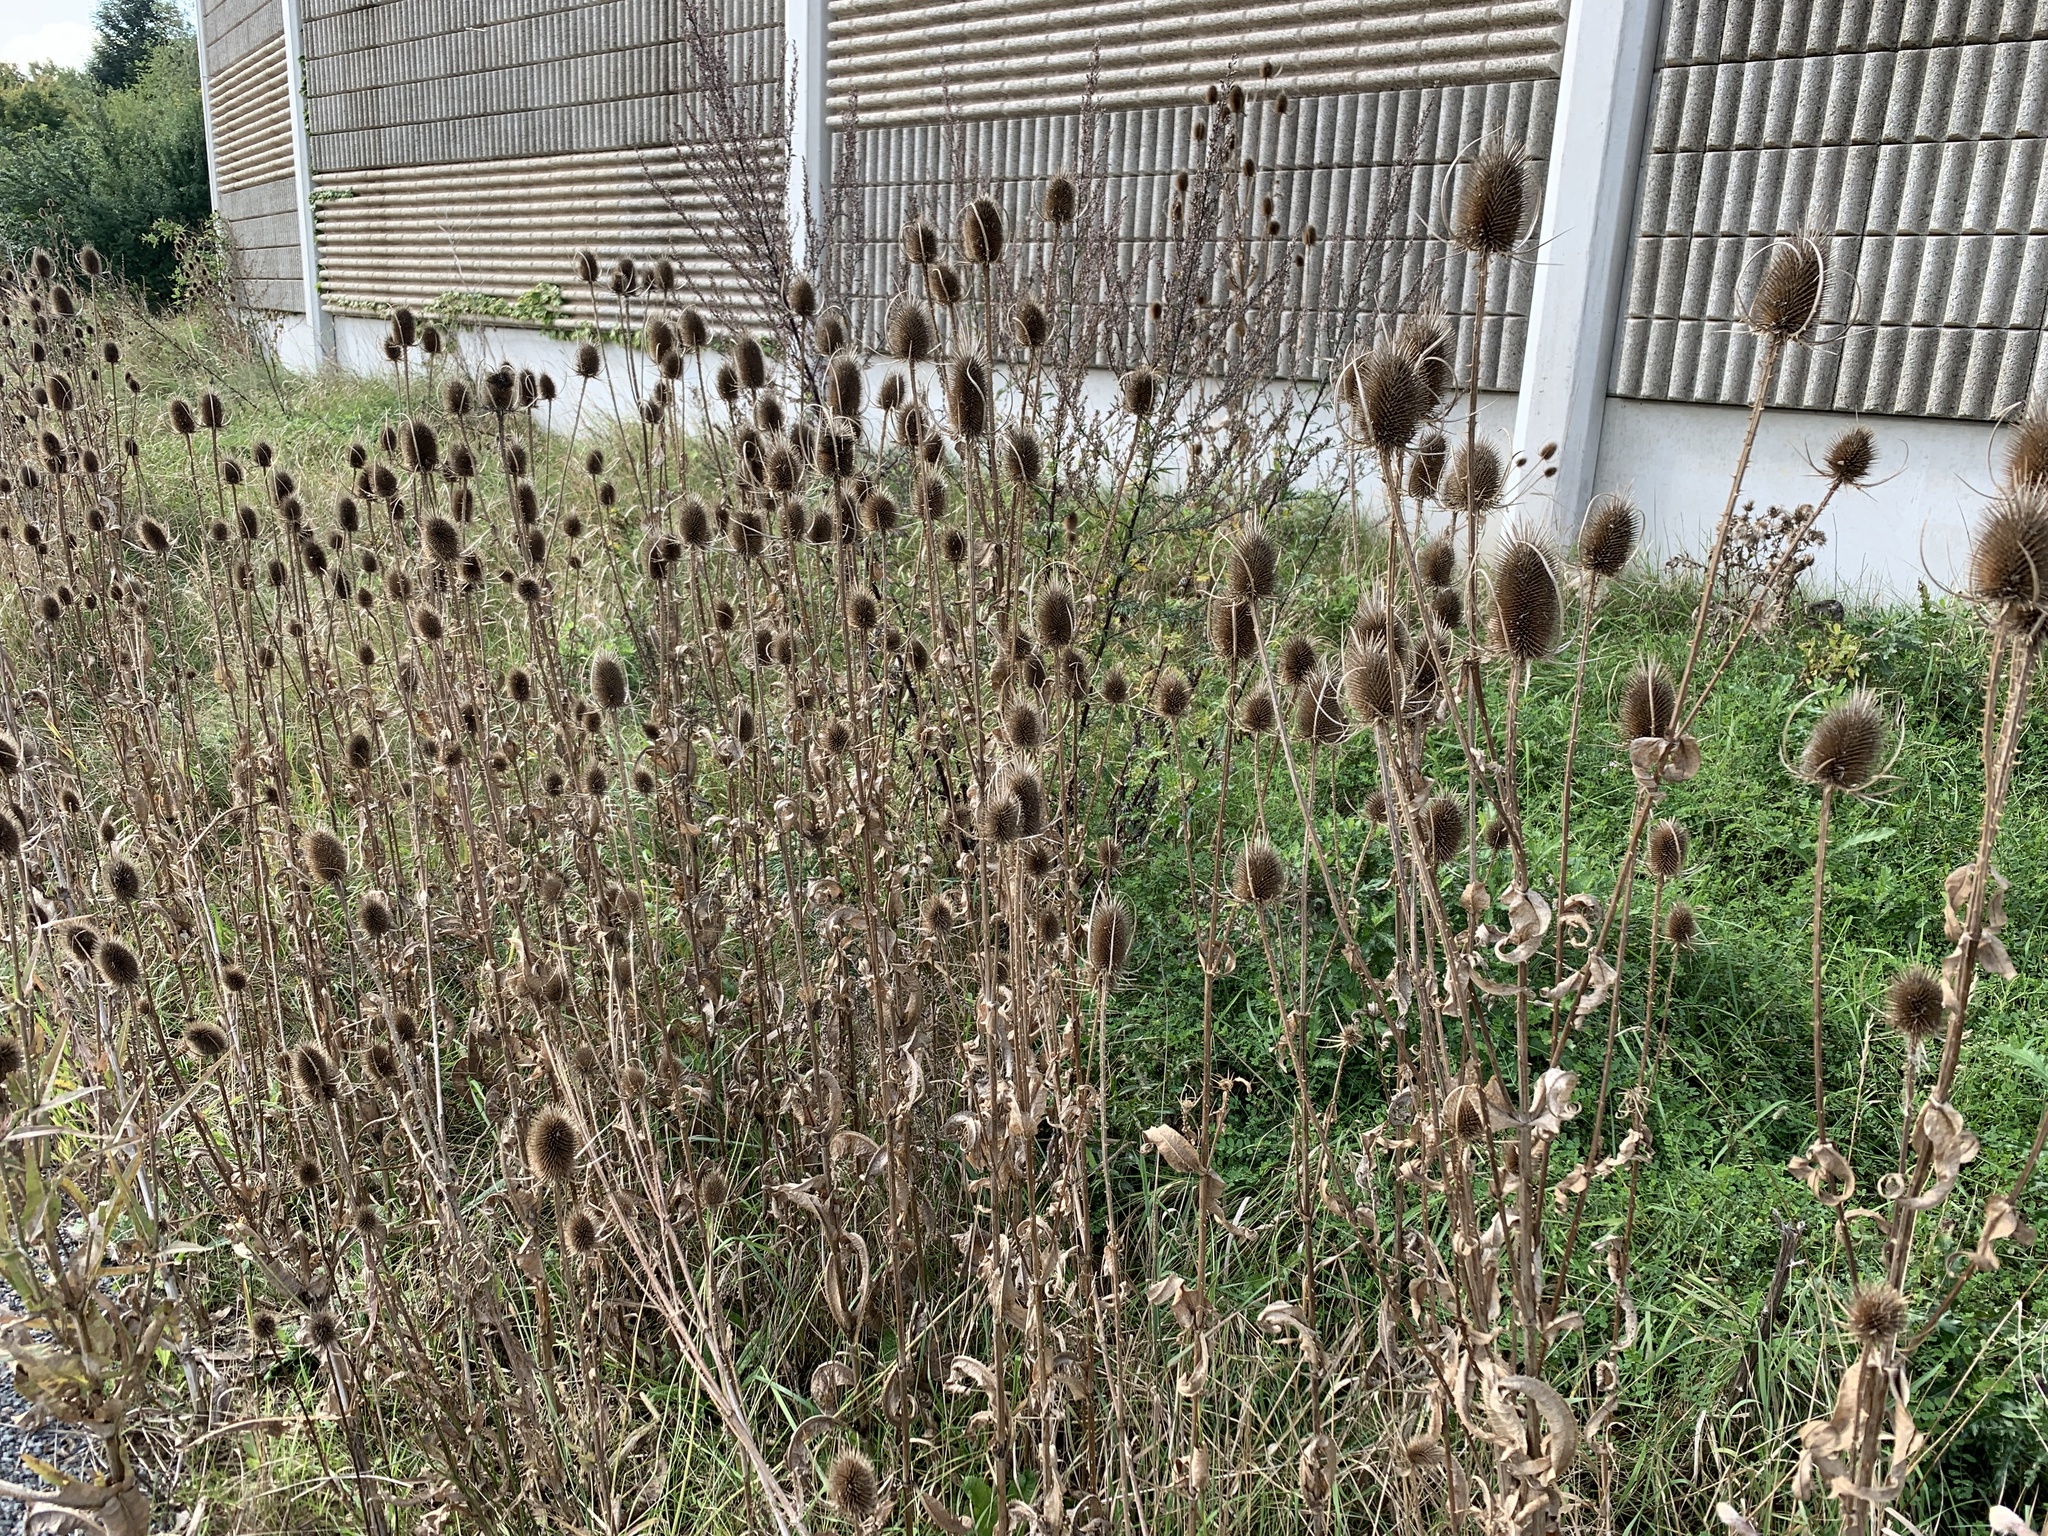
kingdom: Plantae
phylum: Tracheophyta
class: Magnoliopsida
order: Dipsacales
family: Caprifoliaceae
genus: Dipsacus
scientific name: Dipsacus fullonum
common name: Teasel
